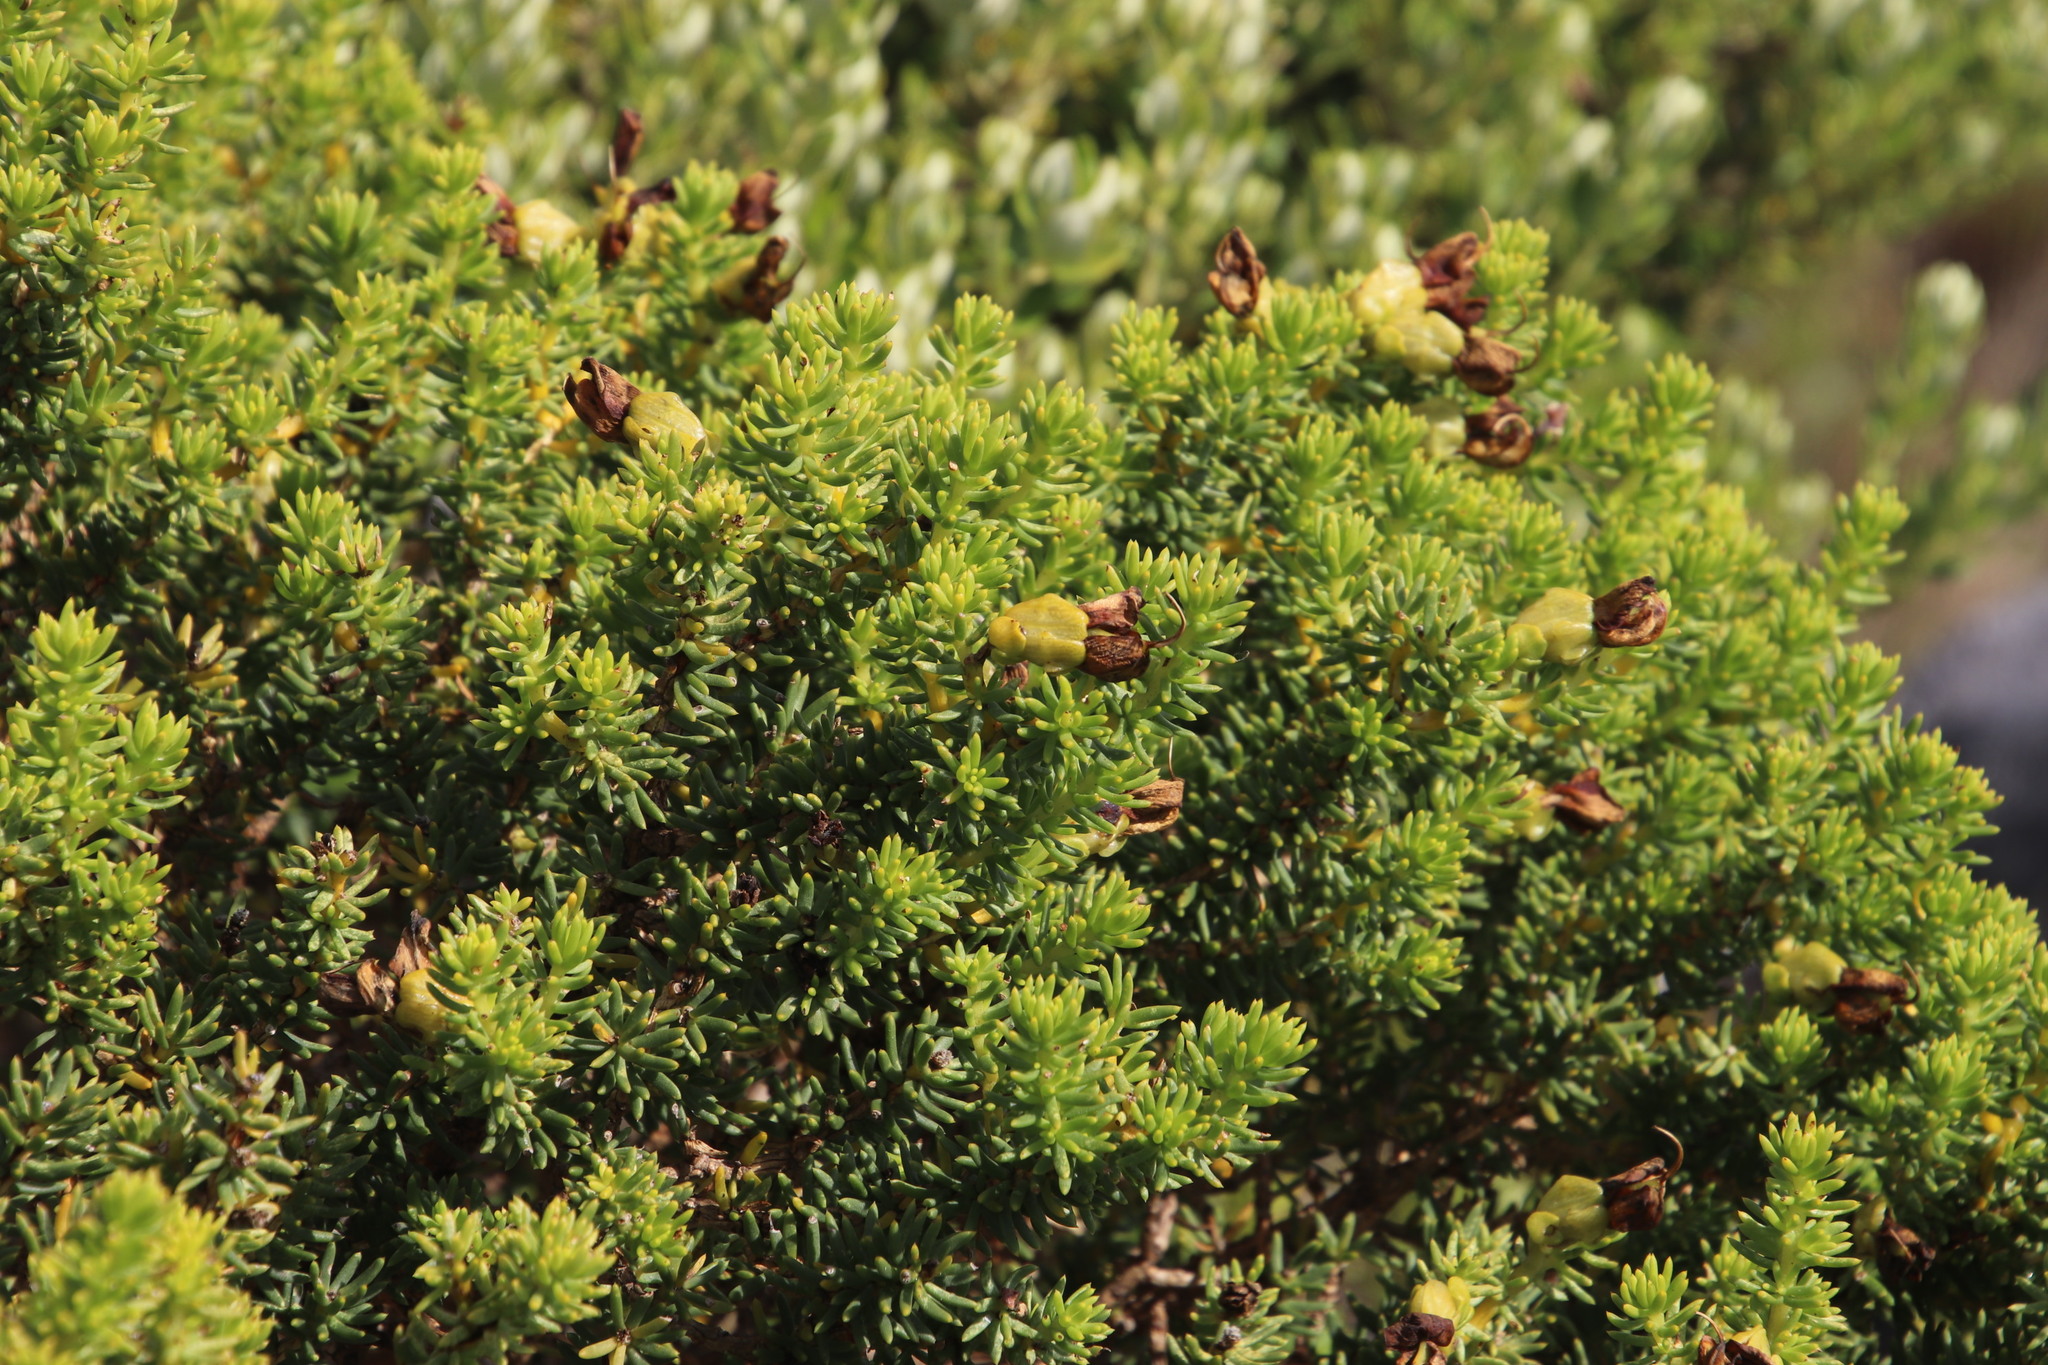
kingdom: Plantae
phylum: Tracheophyta
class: Magnoliopsida
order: Fabales
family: Fabaceae
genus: Aspalathus
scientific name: Aspalathus capensis
